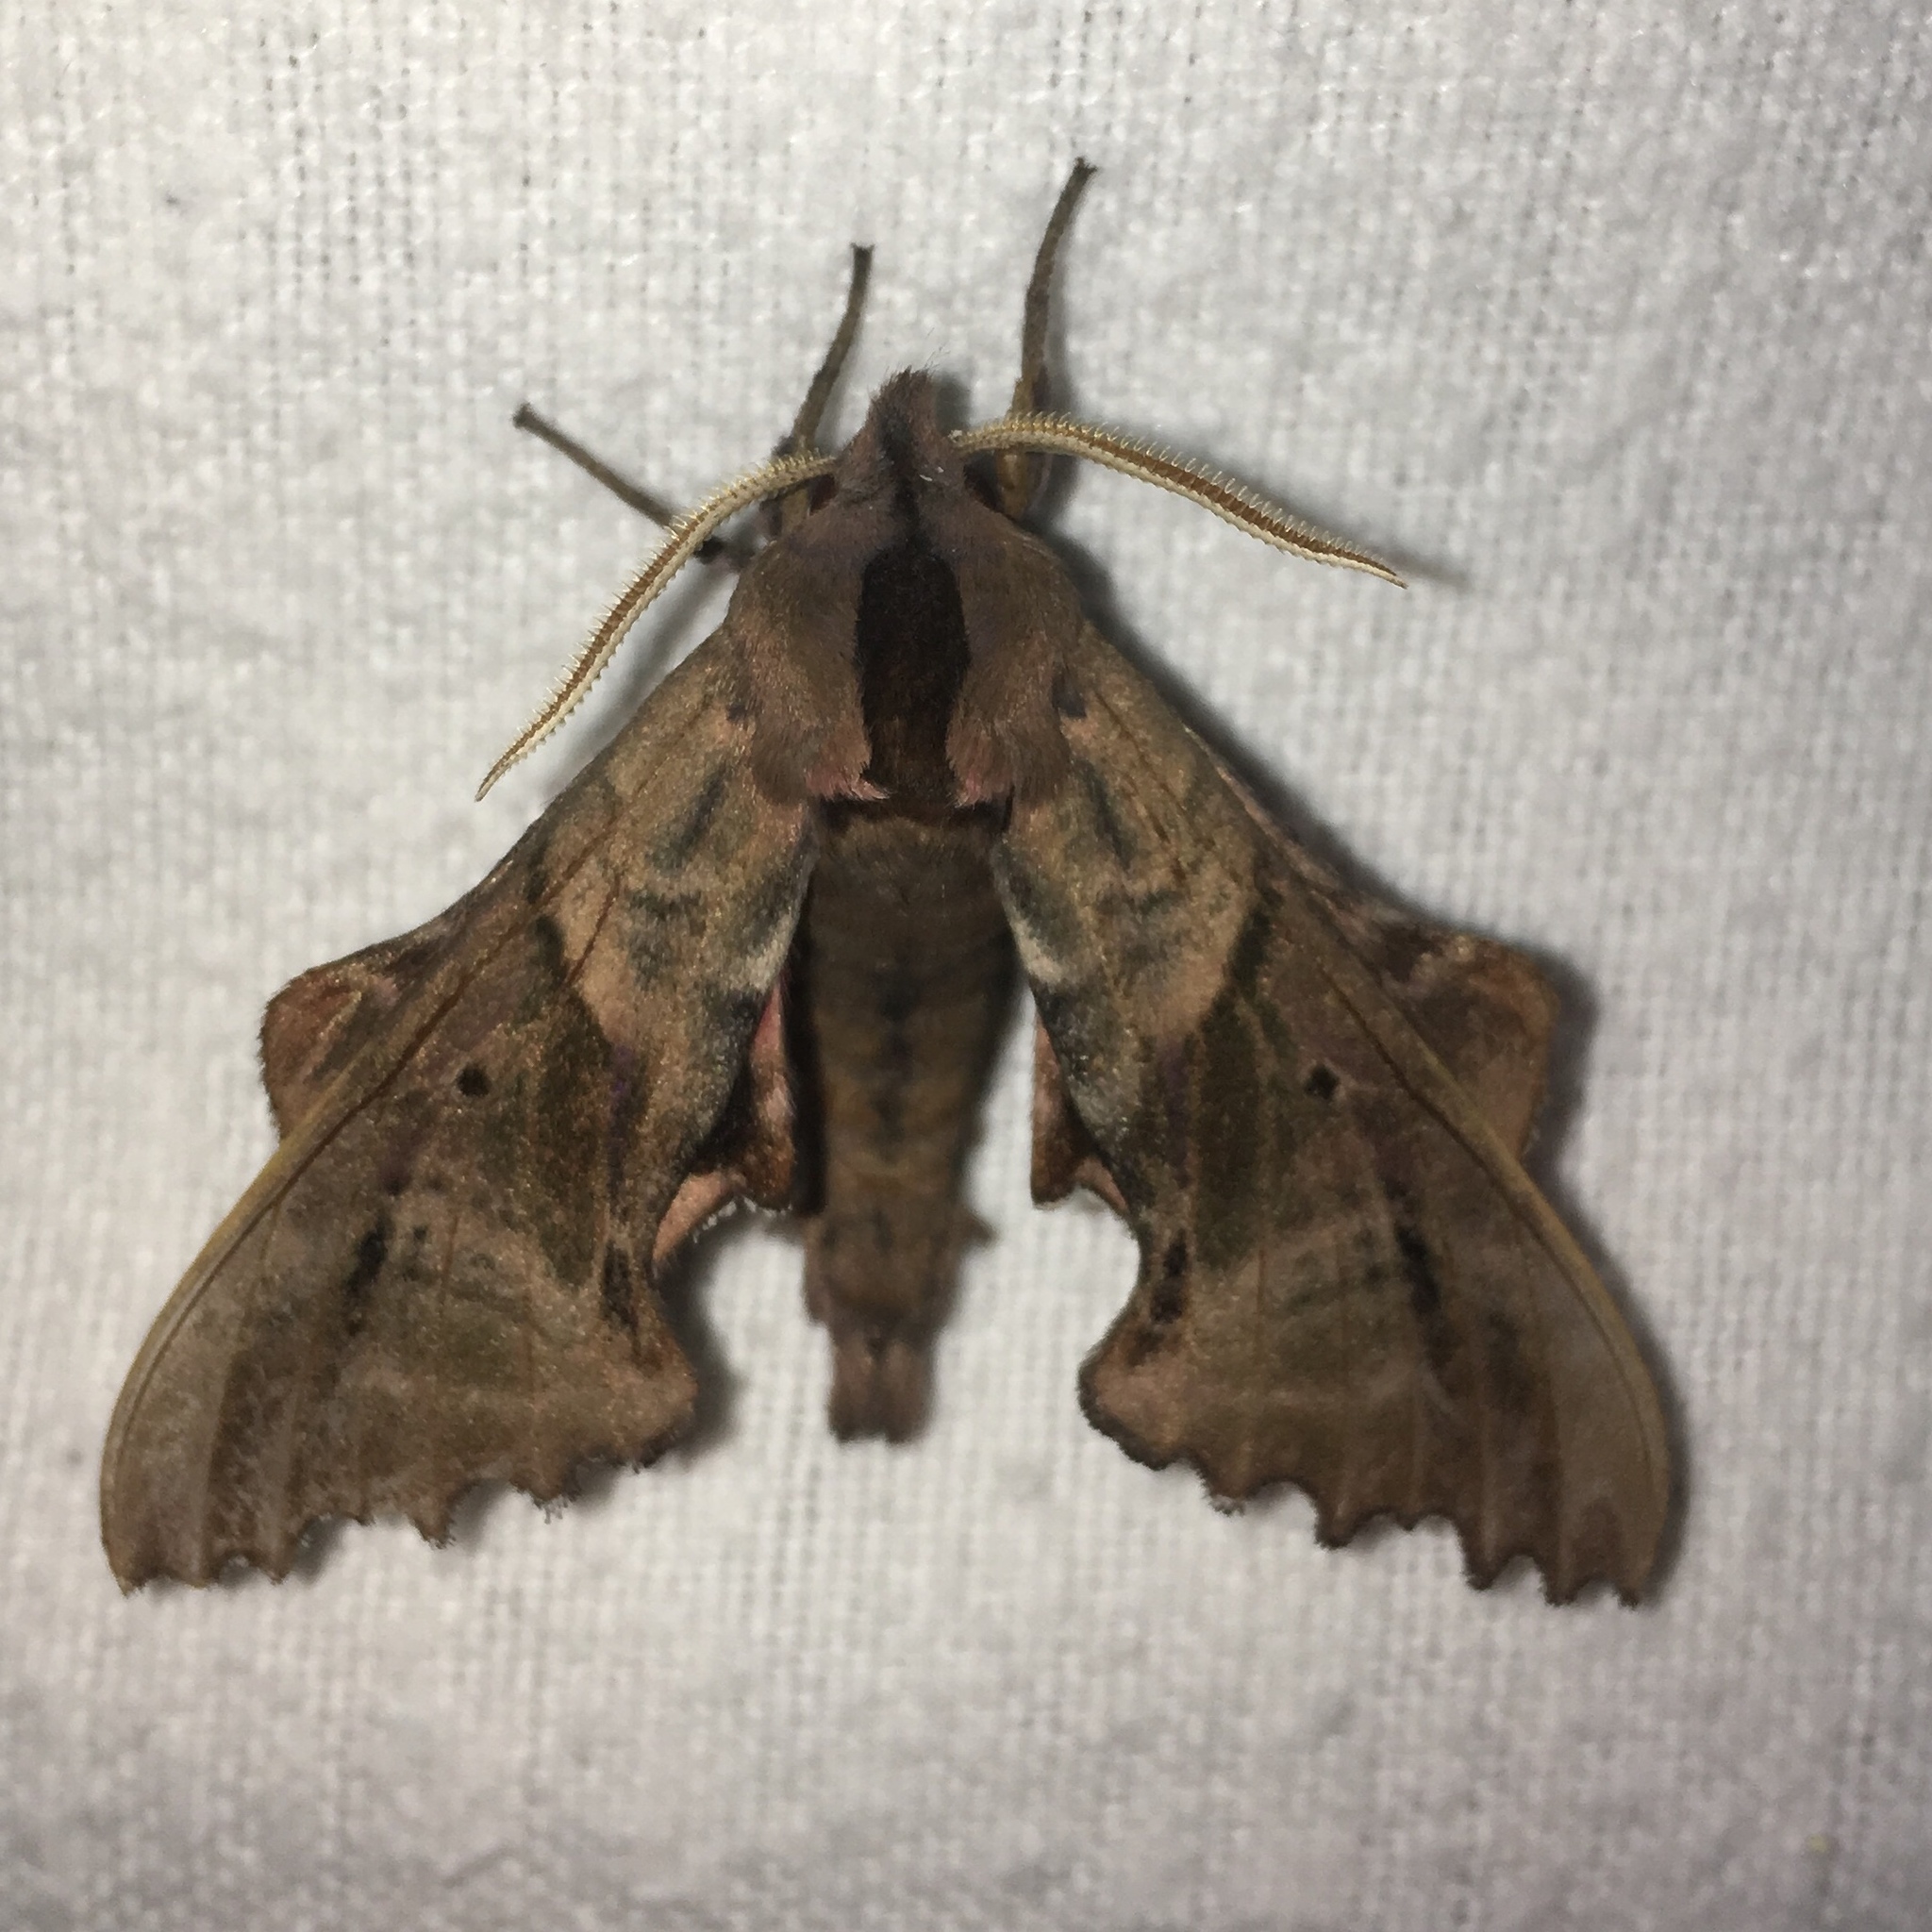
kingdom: Animalia
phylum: Arthropoda
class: Insecta
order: Lepidoptera
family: Sphingidae
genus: Paonias
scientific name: Paonias excaecata
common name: Blind-eyed sphinx
